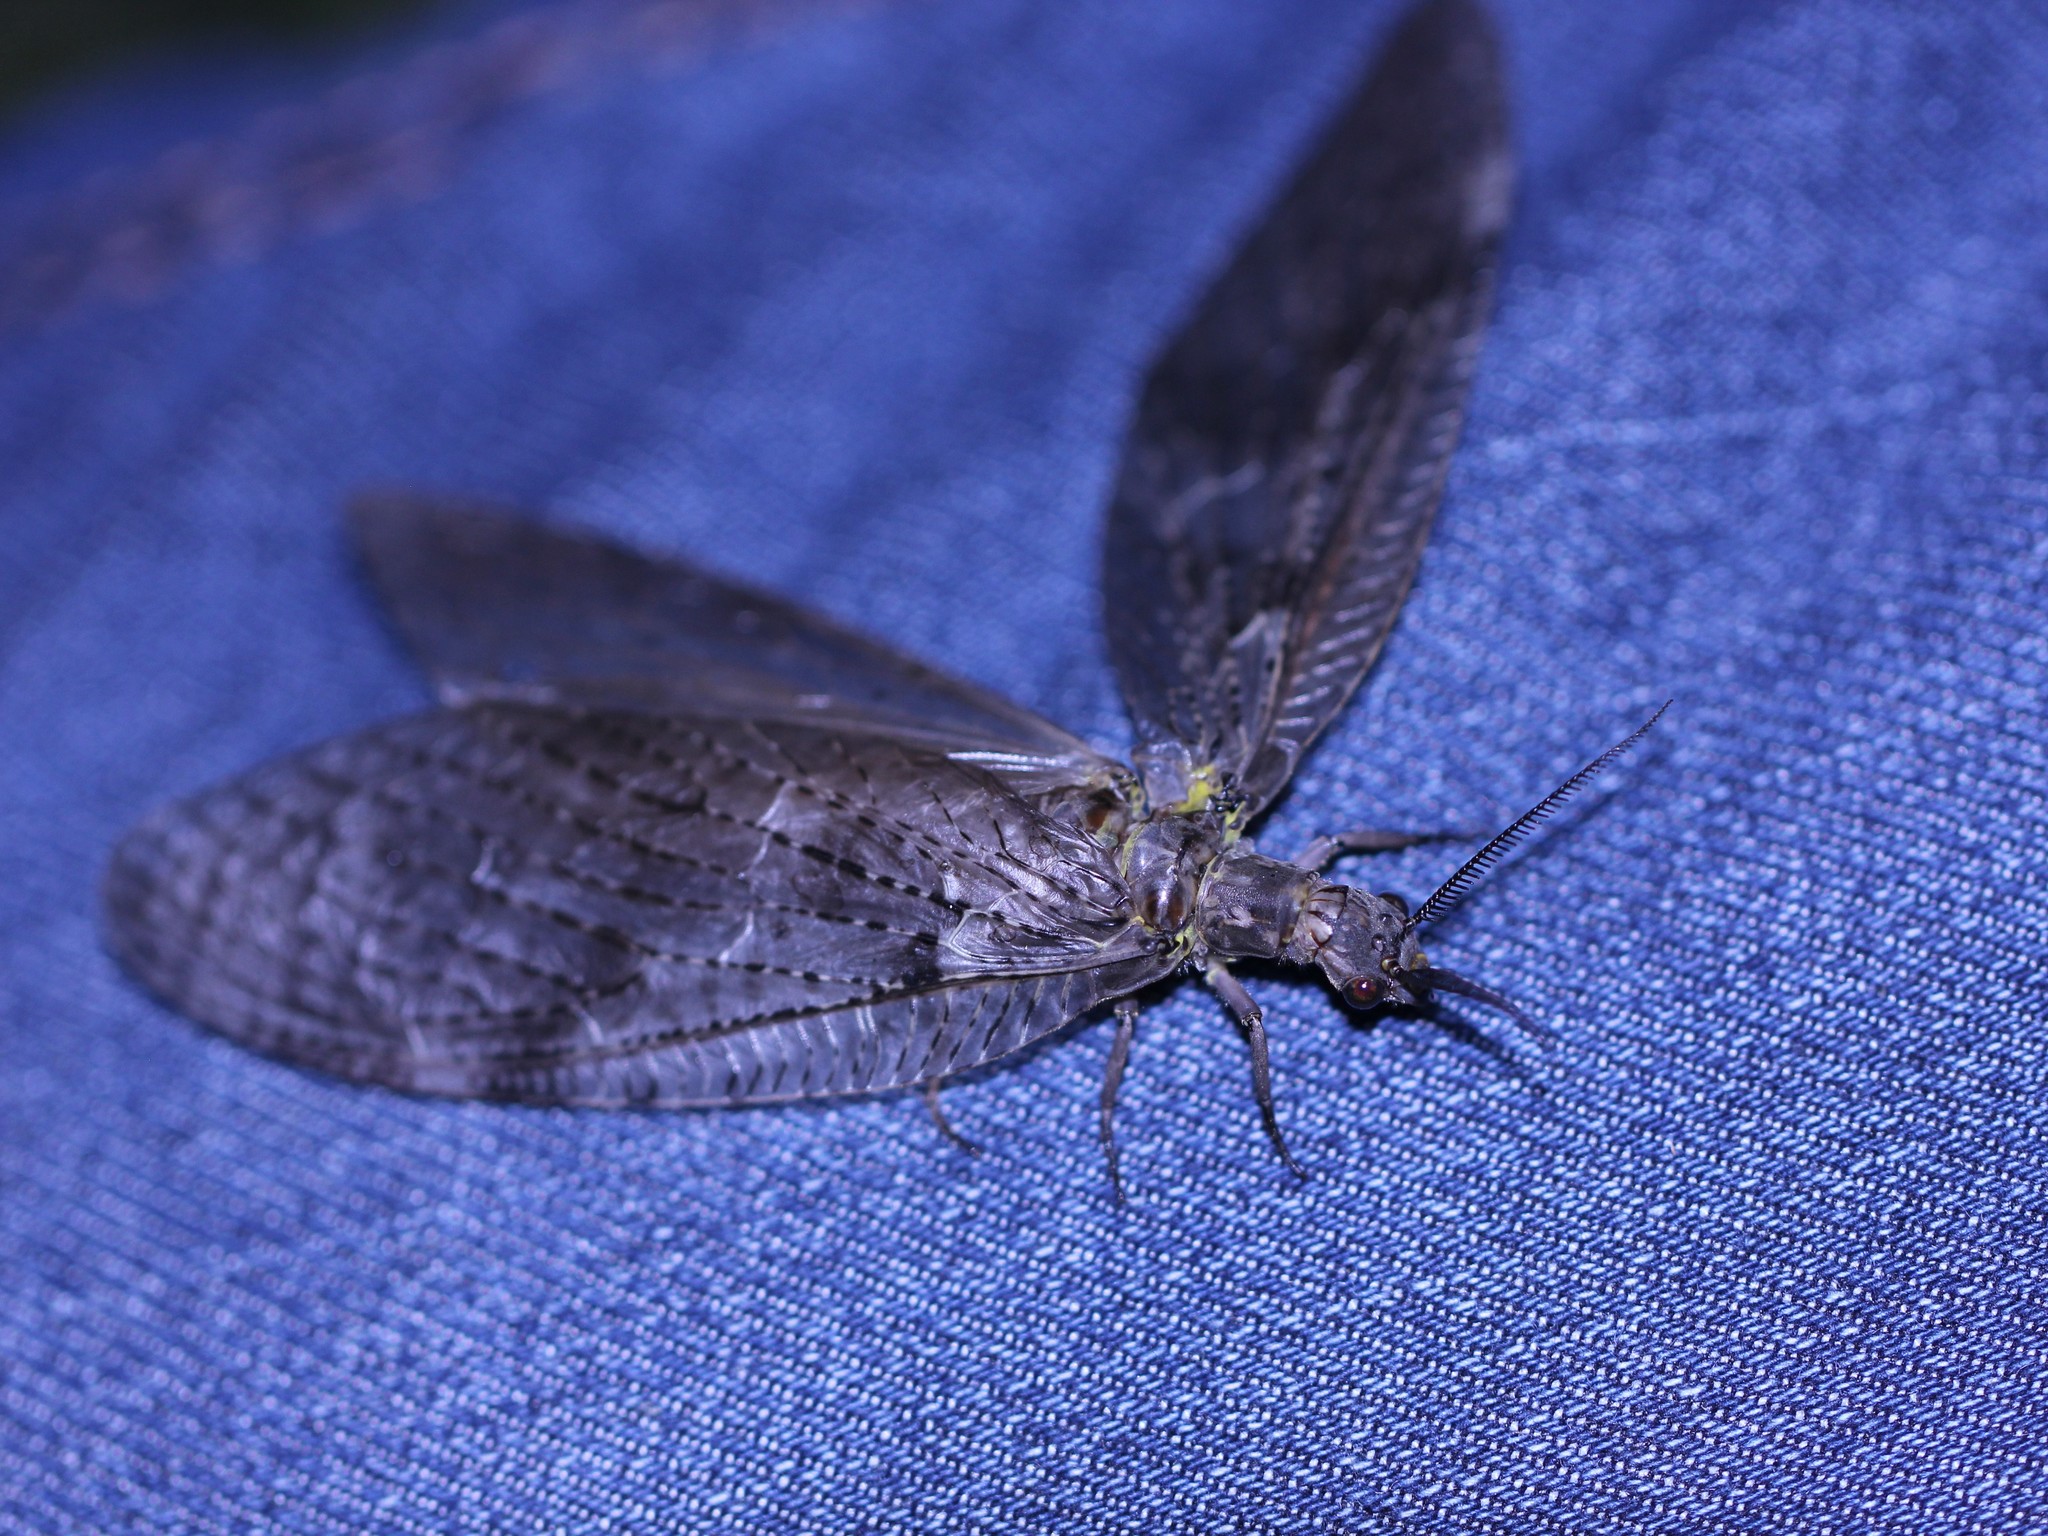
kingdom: Animalia
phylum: Arthropoda
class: Insecta
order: Megaloptera
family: Corydalidae
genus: Chauliodes
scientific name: Chauliodes pectinicornis
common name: Summer fishfly
